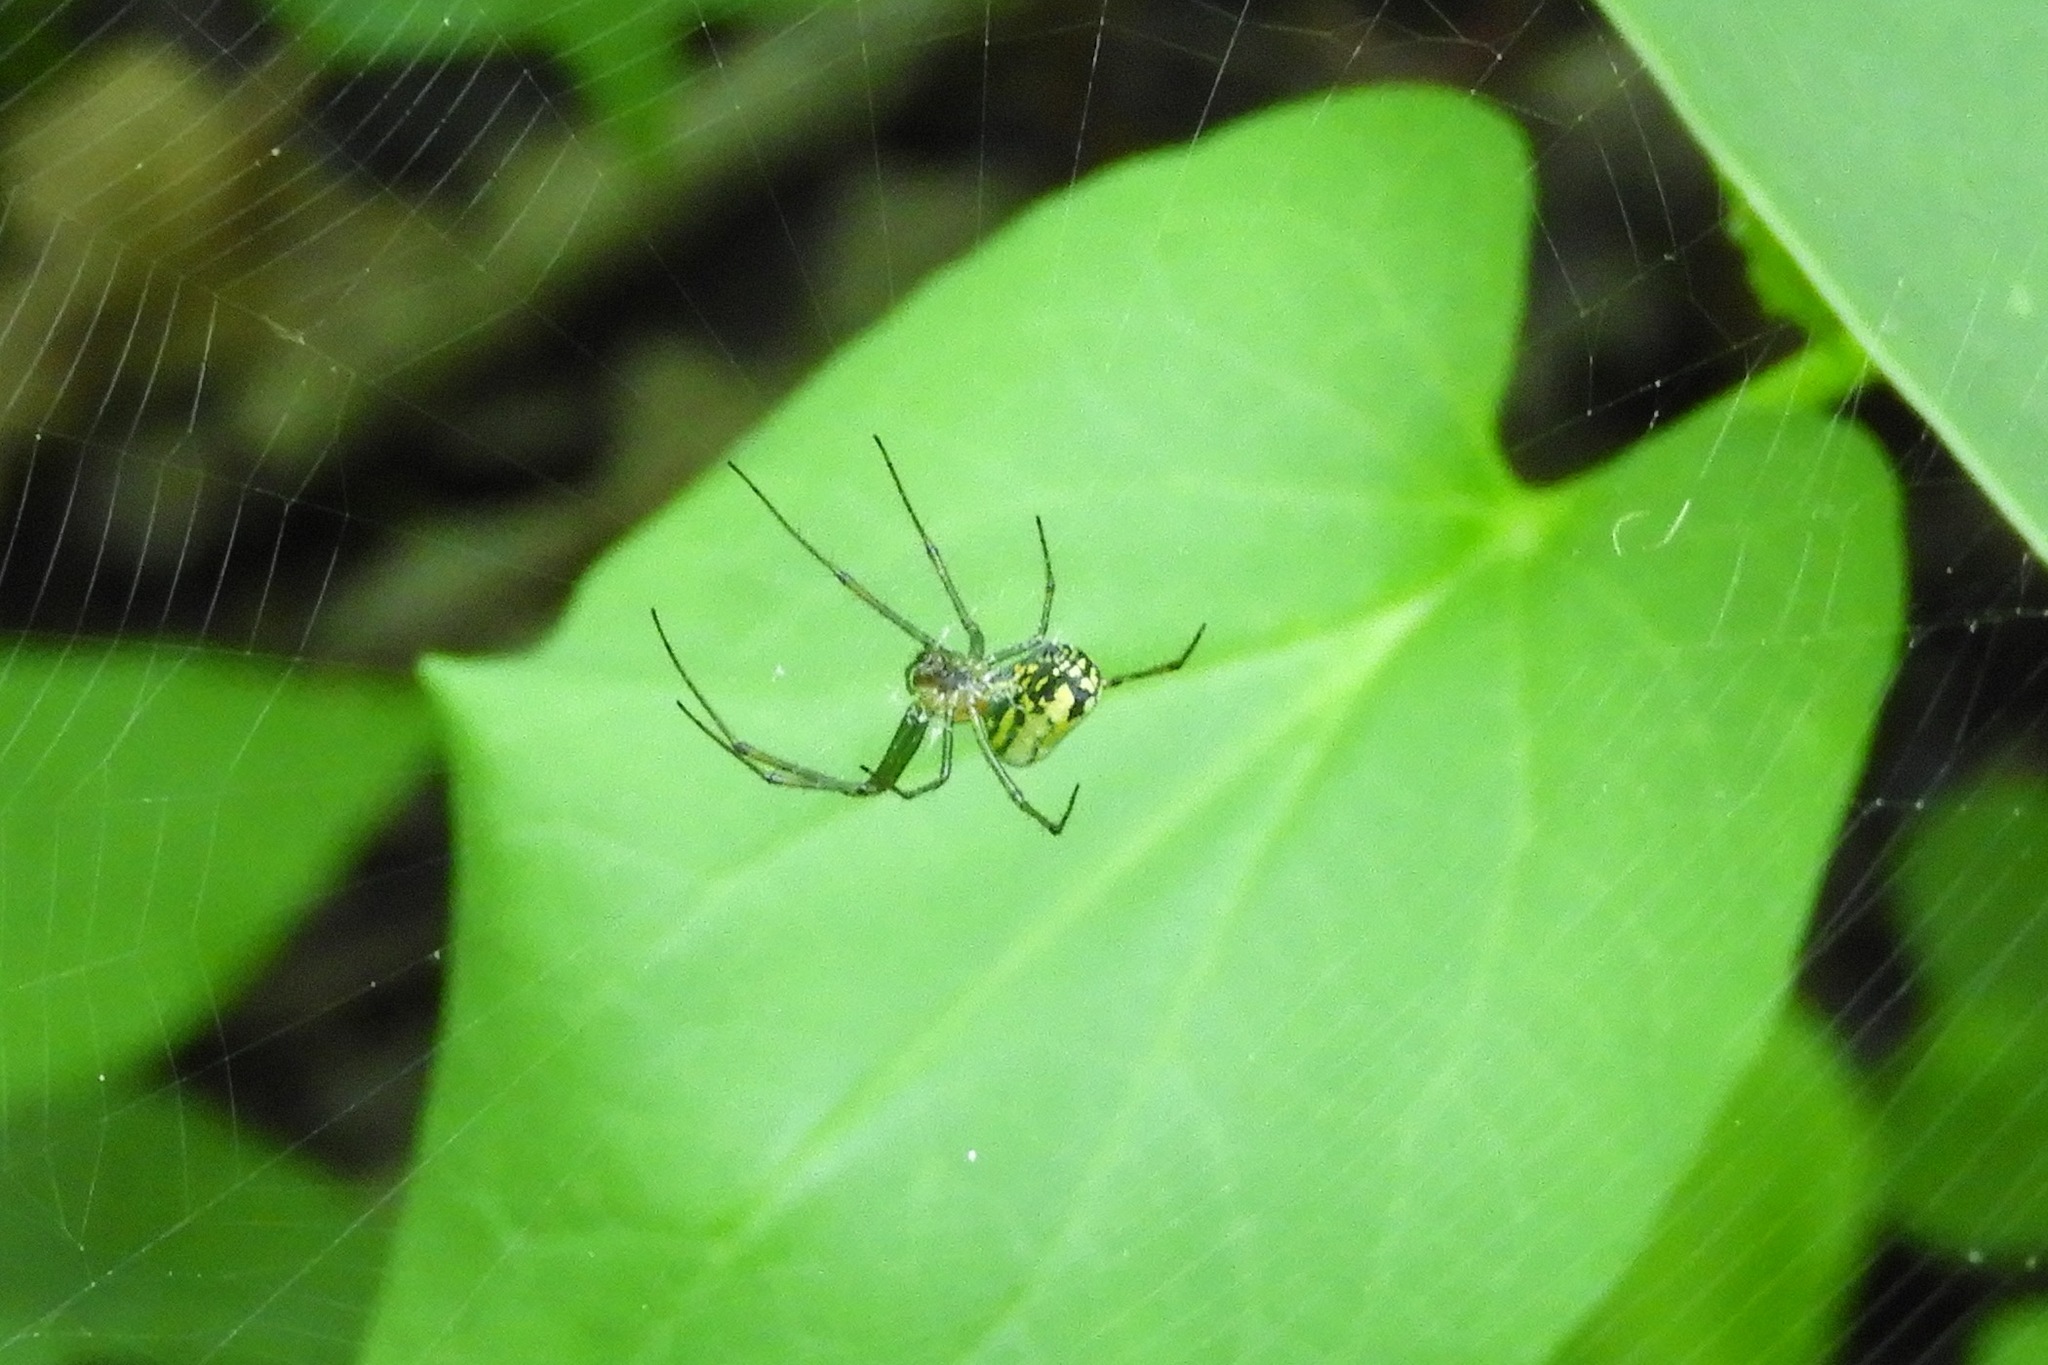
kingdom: Animalia
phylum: Arthropoda
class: Arachnida
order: Araneae
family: Tetragnathidae
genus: Leucauge
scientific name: Leucauge venusta
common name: Longjawed orb weavers
